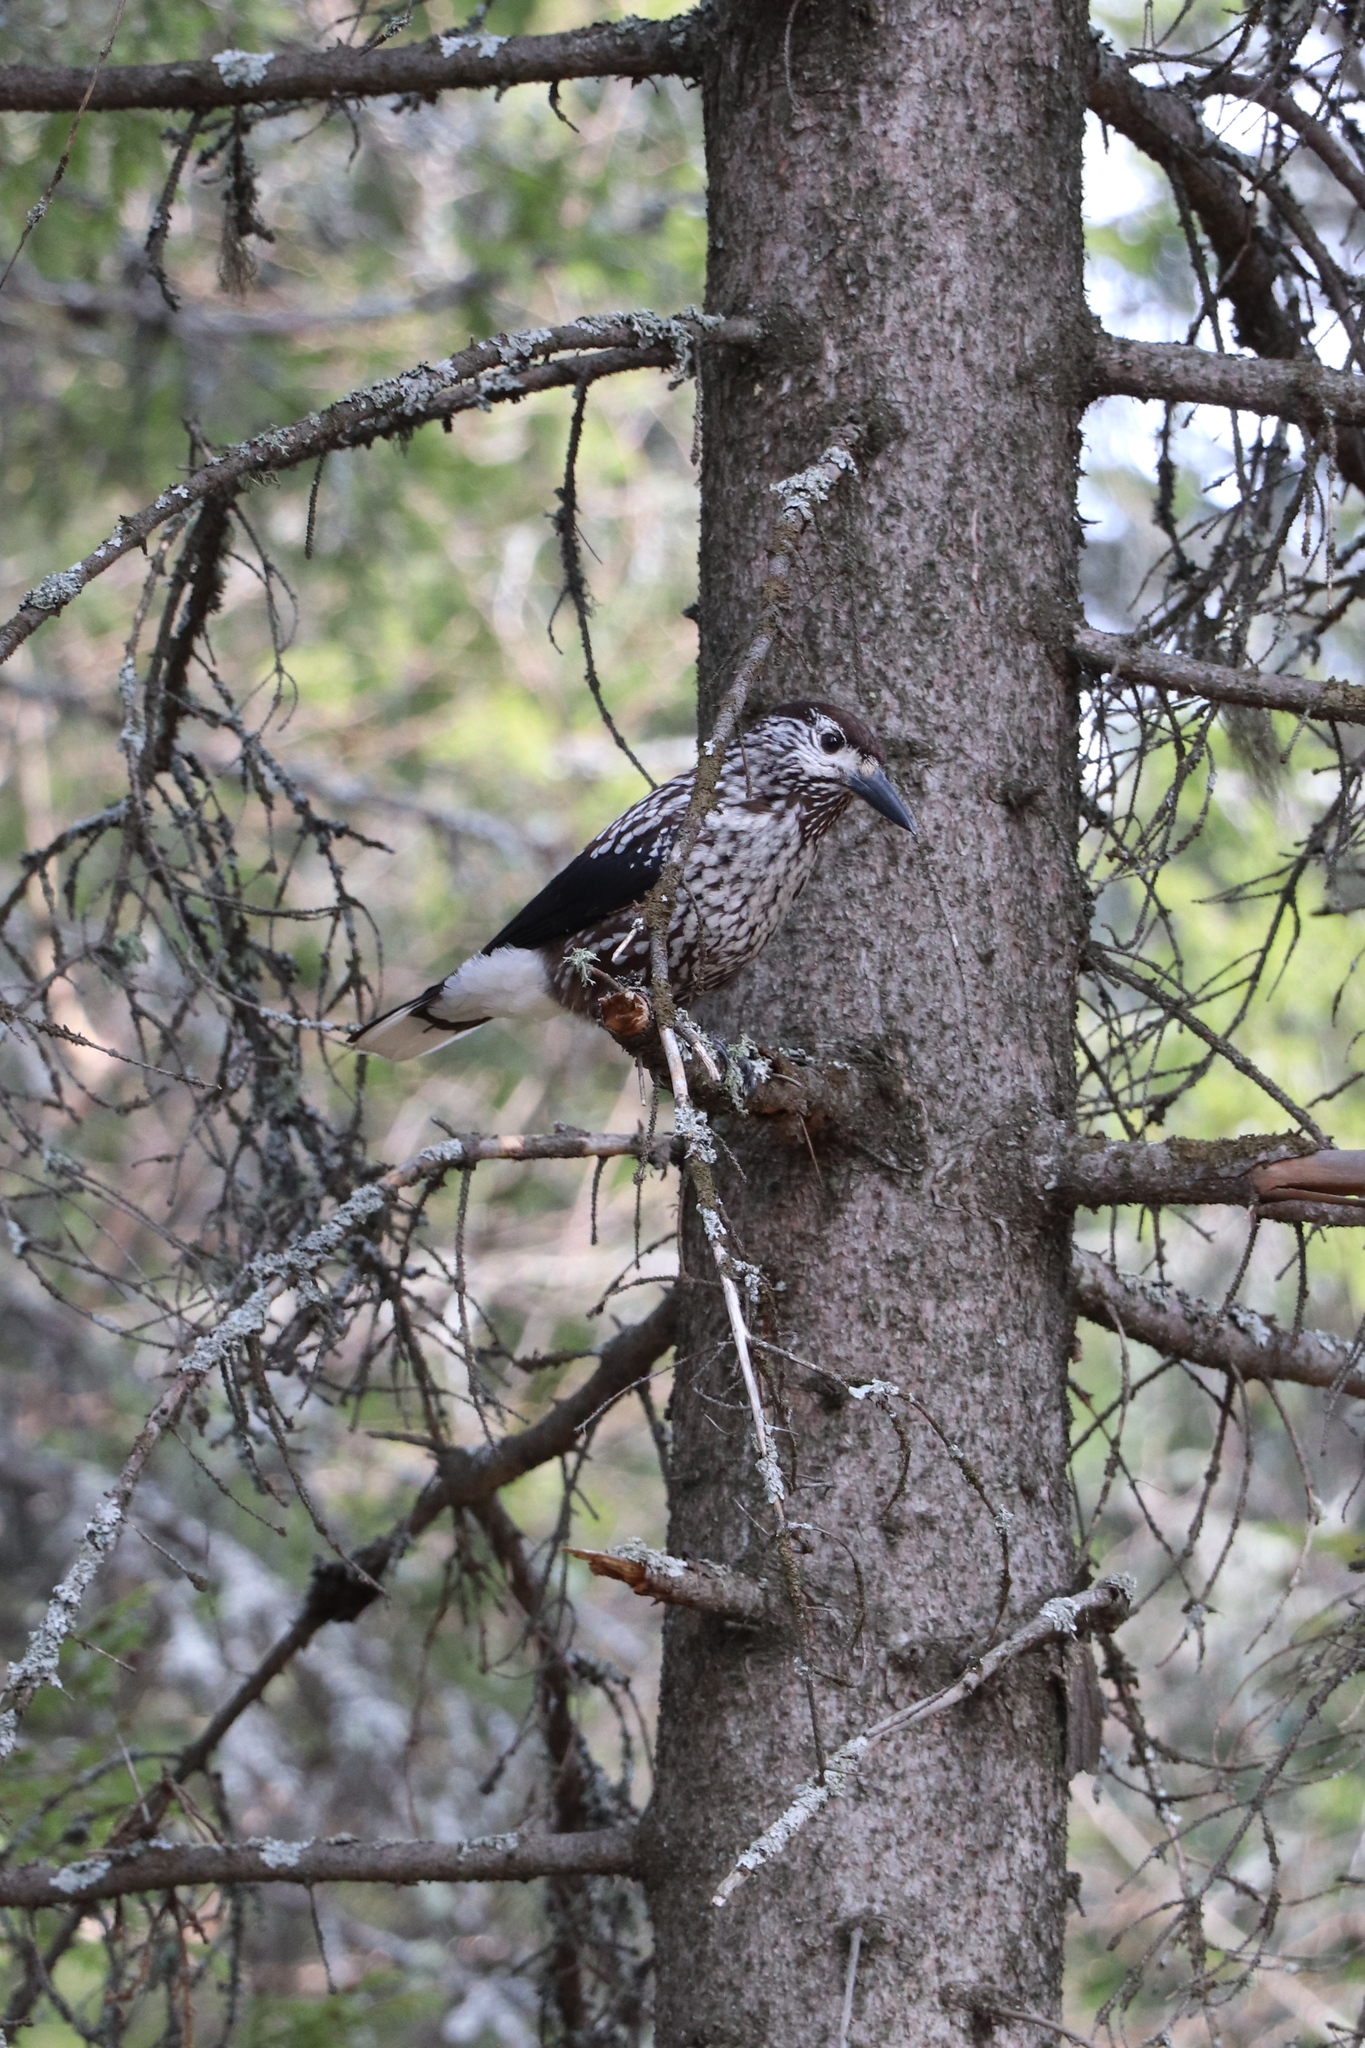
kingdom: Animalia
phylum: Chordata
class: Aves
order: Passeriformes
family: Corvidae
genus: Nucifraga
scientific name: Nucifraga caryocatactes
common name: Spotted nutcracker
